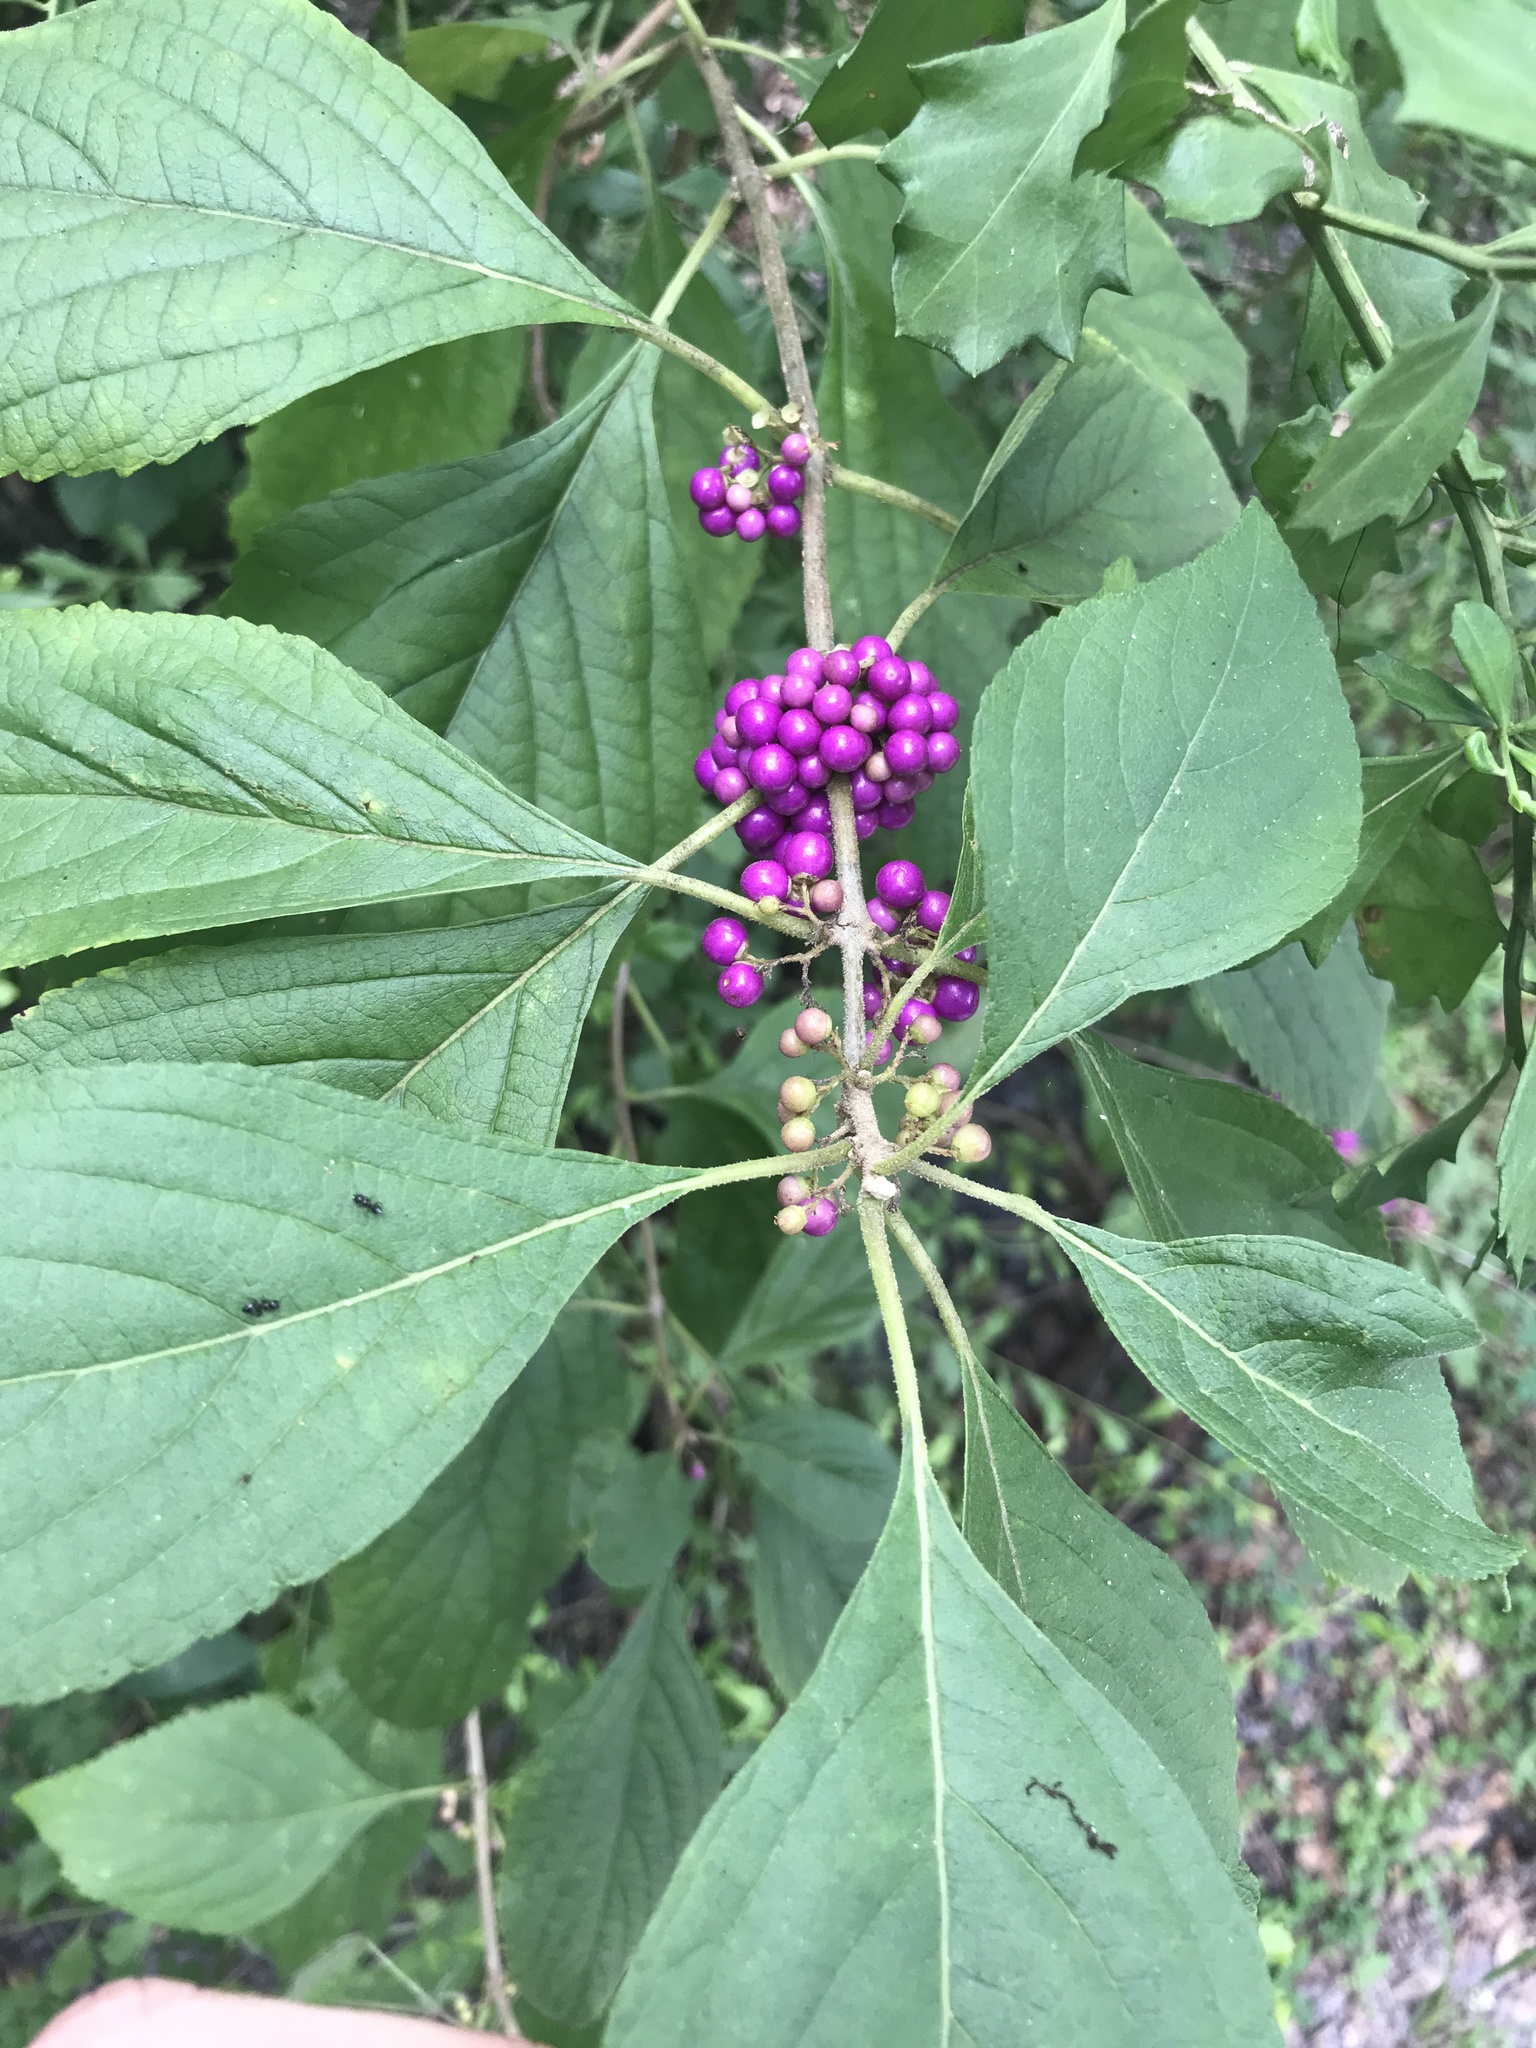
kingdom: Plantae
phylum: Tracheophyta
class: Magnoliopsida
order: Lamiales
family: Lamiaceae
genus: Callicarpa
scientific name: Callicarpa americana
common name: American beautyberry
